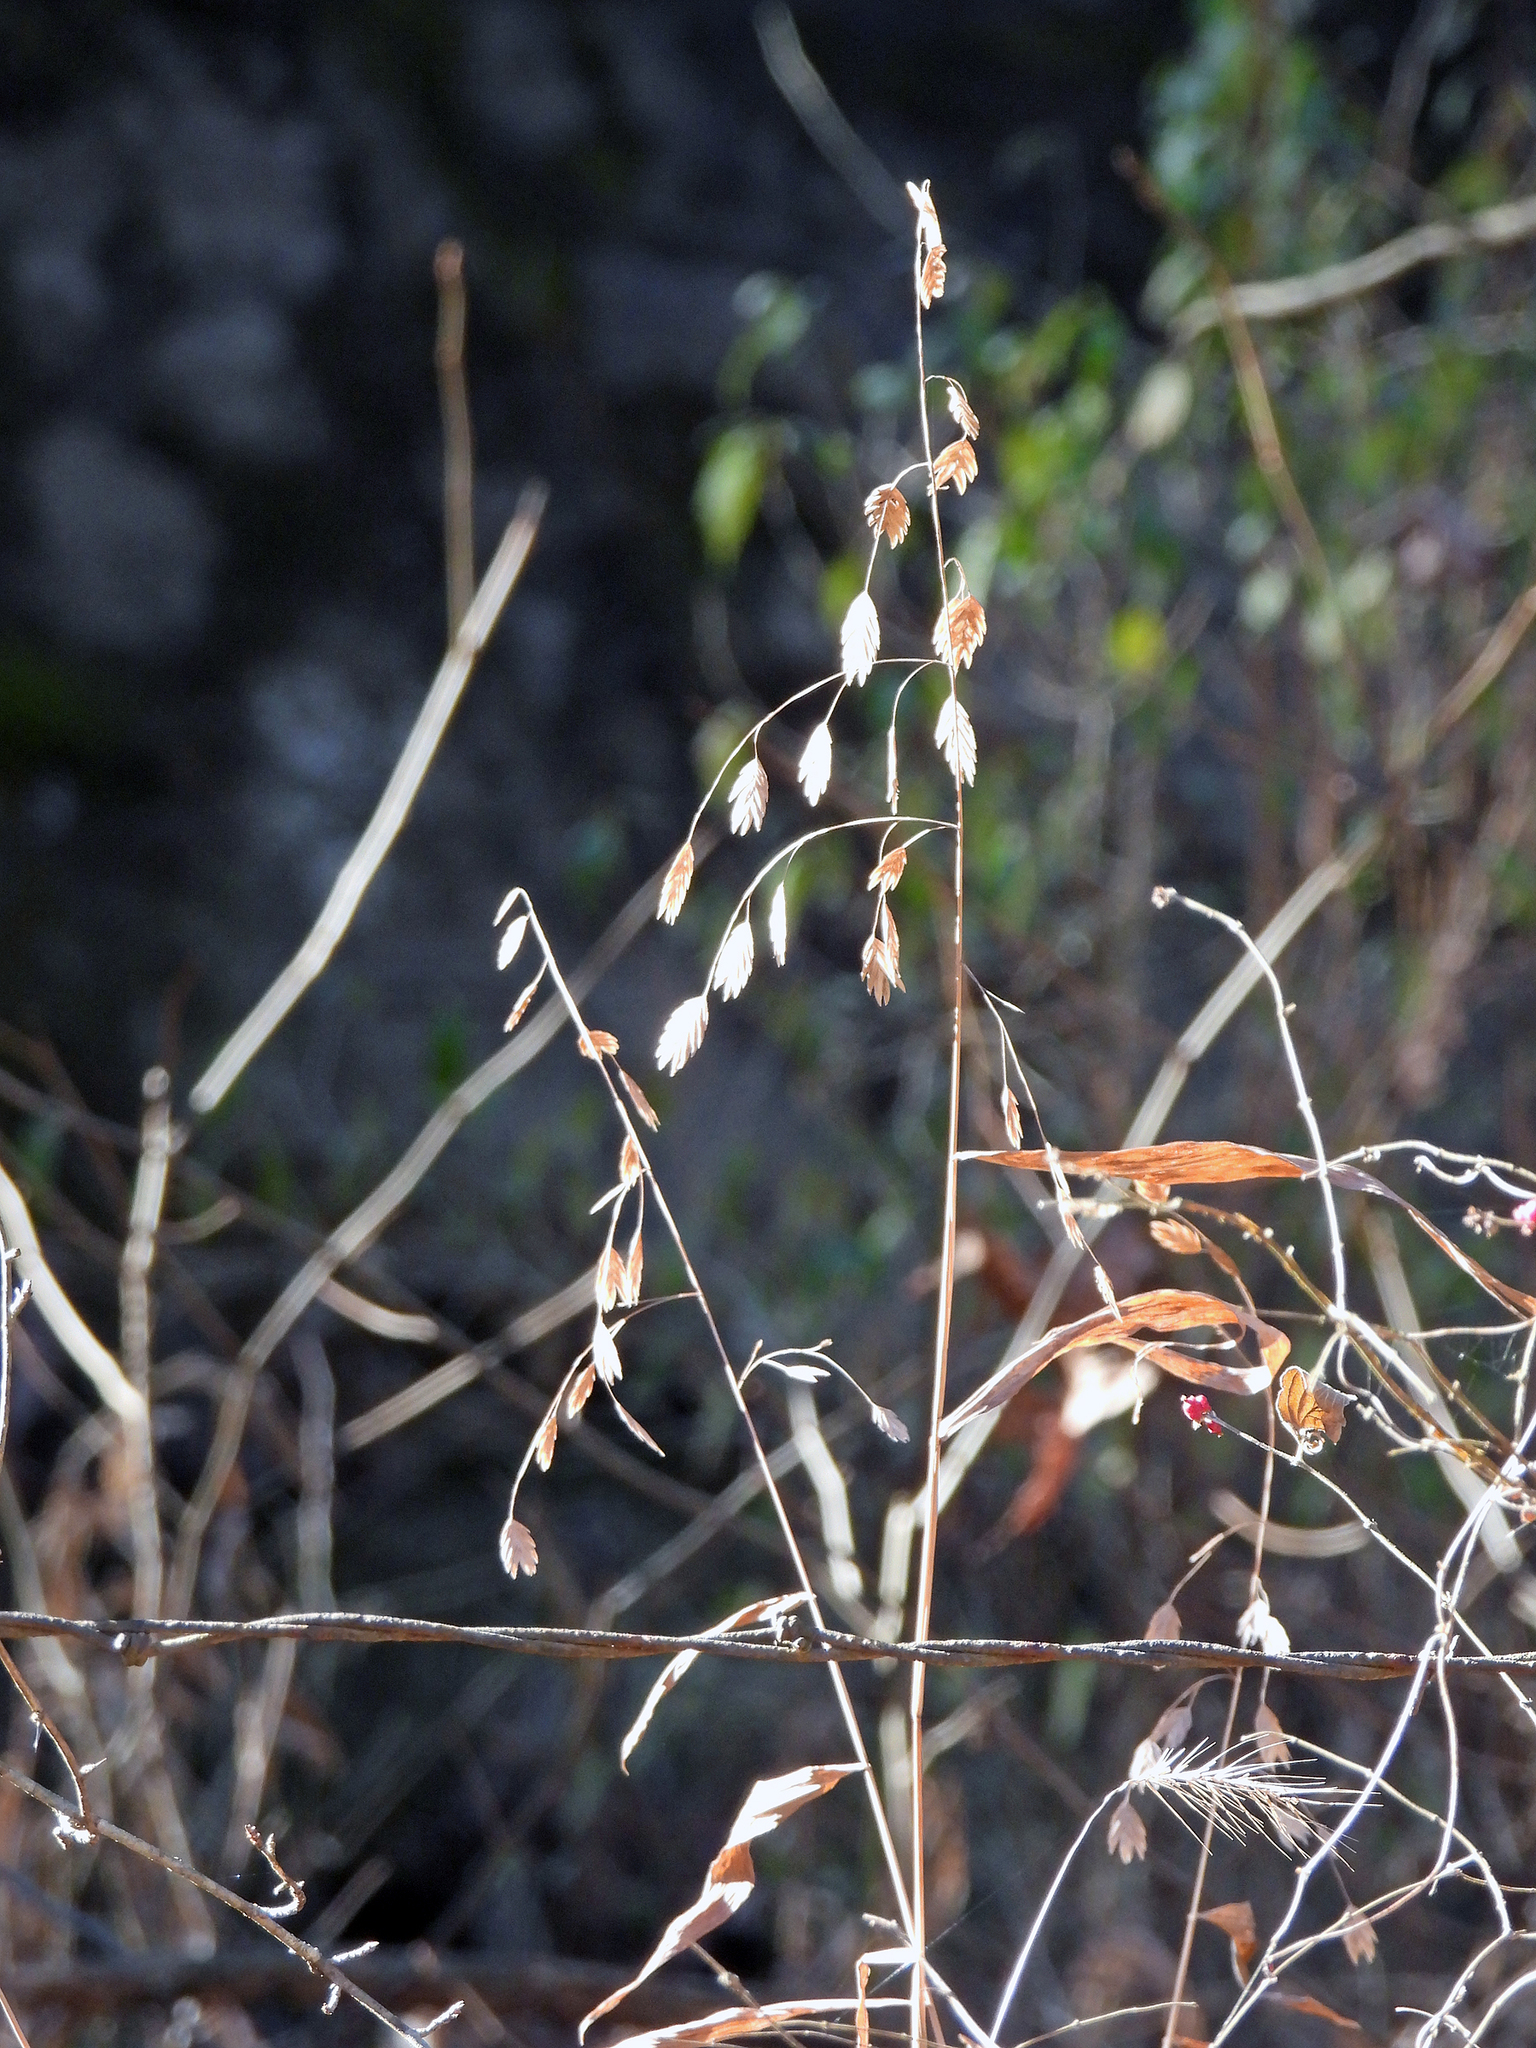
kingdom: Plantae
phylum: Tracheophyta
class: Liliopsida
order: Poales
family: Poaceae
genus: Chasmanthium
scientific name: Chasmanthium latifolium
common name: Broad-leaved chasmanthium
